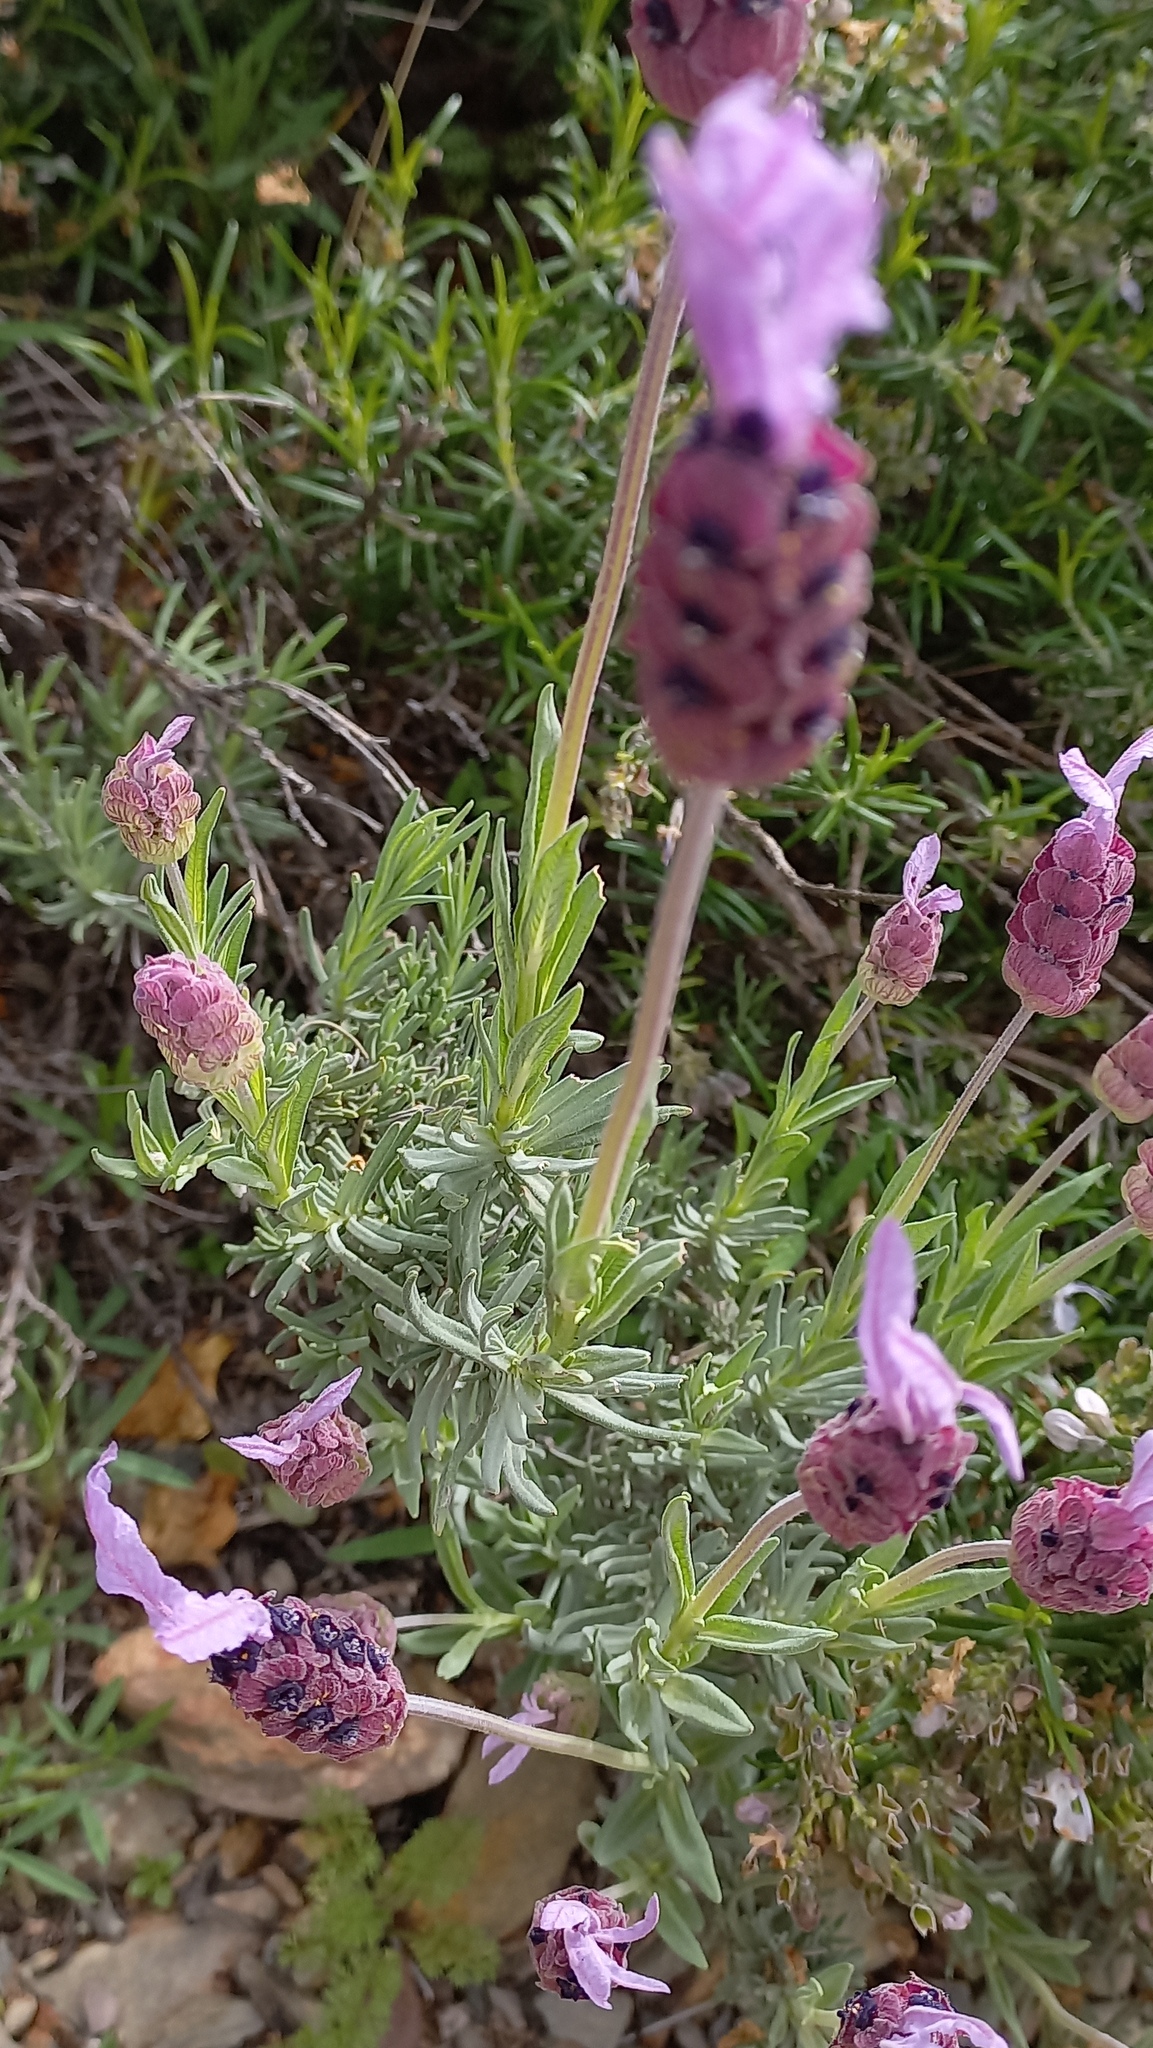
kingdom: Plantae
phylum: Tracheophyta
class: Magnoliopsida
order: Lamiales
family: Lamiaceae
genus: Lavandula
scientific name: Lavandula pedunculata
